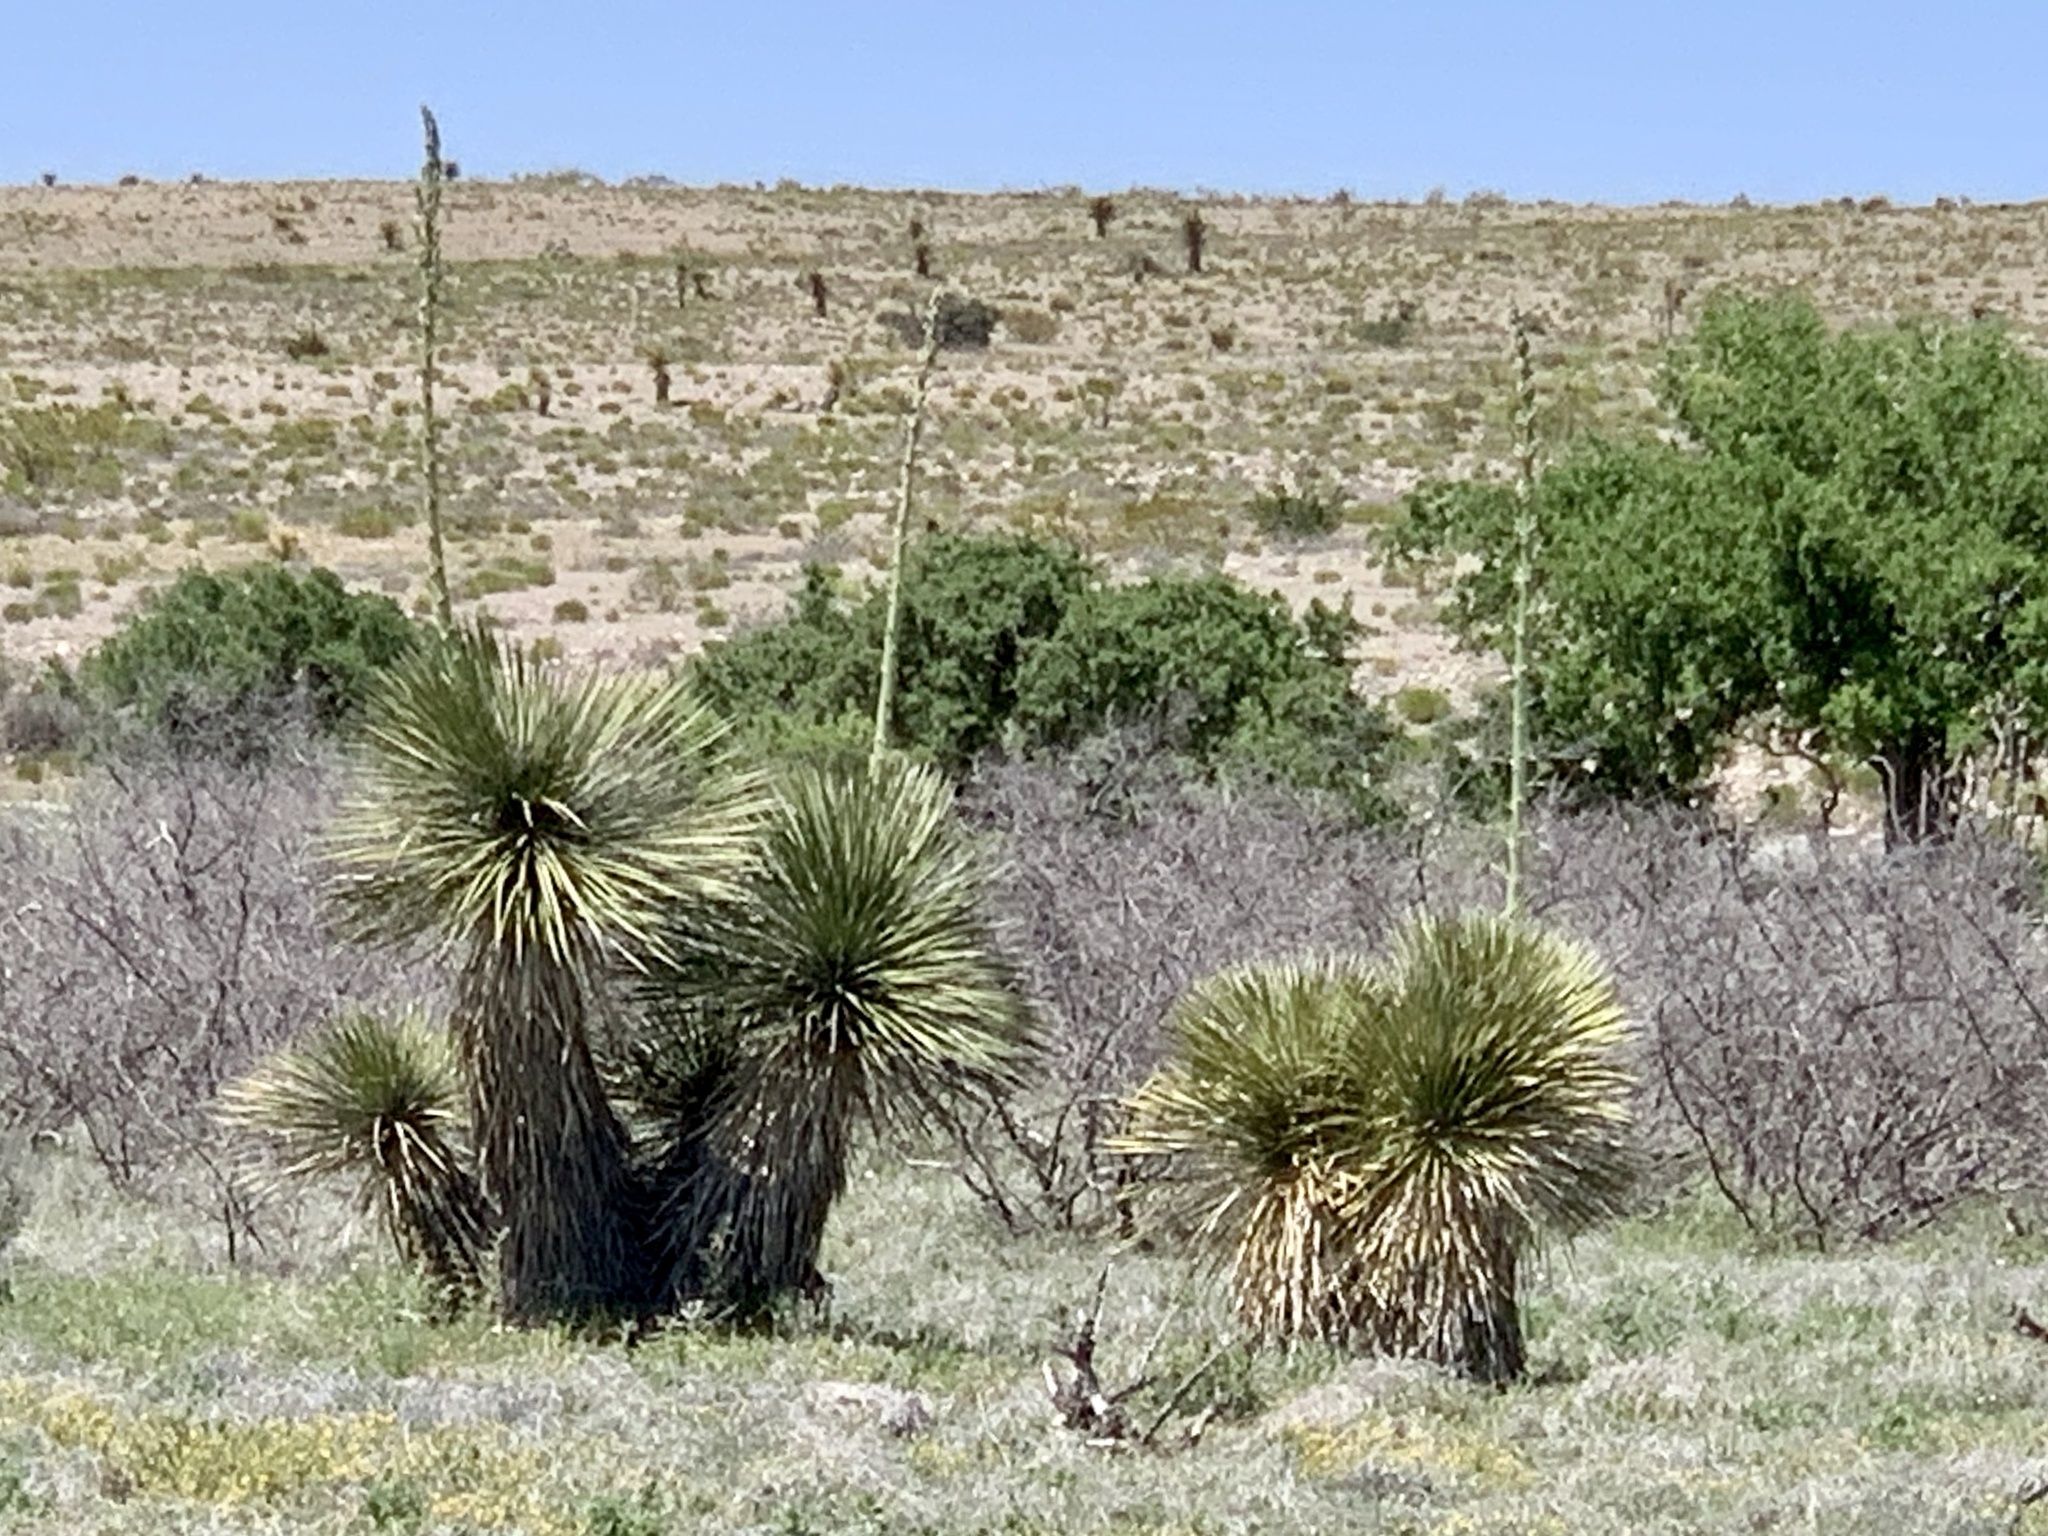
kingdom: Plantae
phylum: Tracheophyta
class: Liliopsida
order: Asparagales
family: Asparagaceae
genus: Yucca
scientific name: Yucca elata
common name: Palmella
